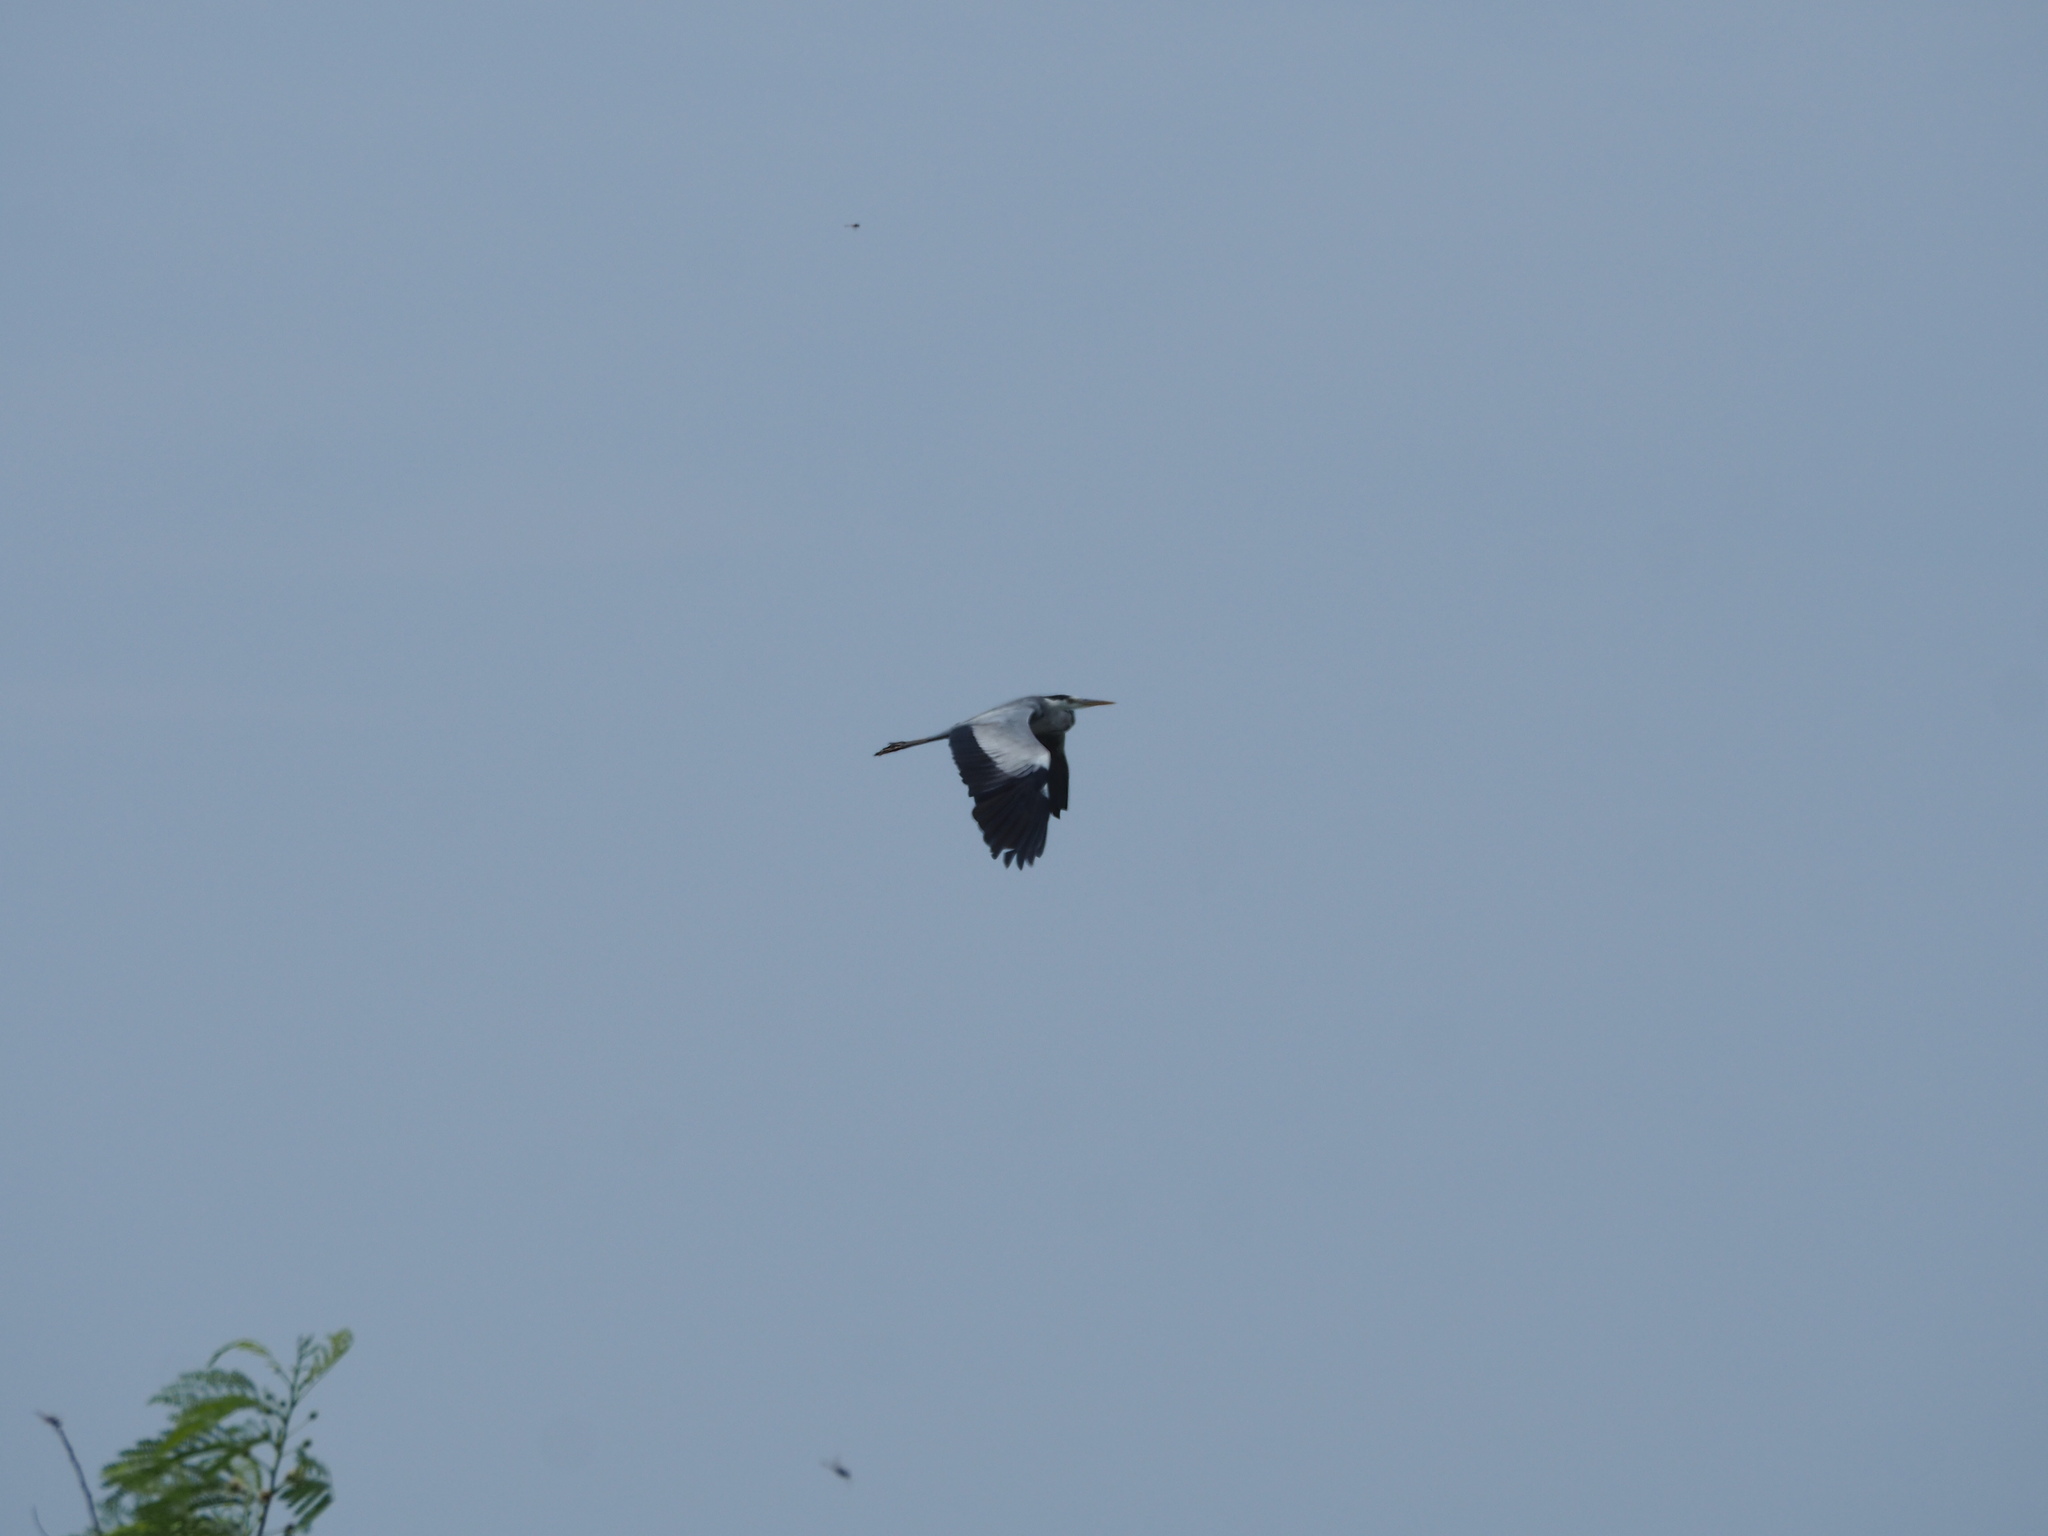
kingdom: Animalia
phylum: Chordata
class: Aves
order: Pelecaniformes
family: Ardeidae
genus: Ardea
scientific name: Ardea cinerea
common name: Grey heron
